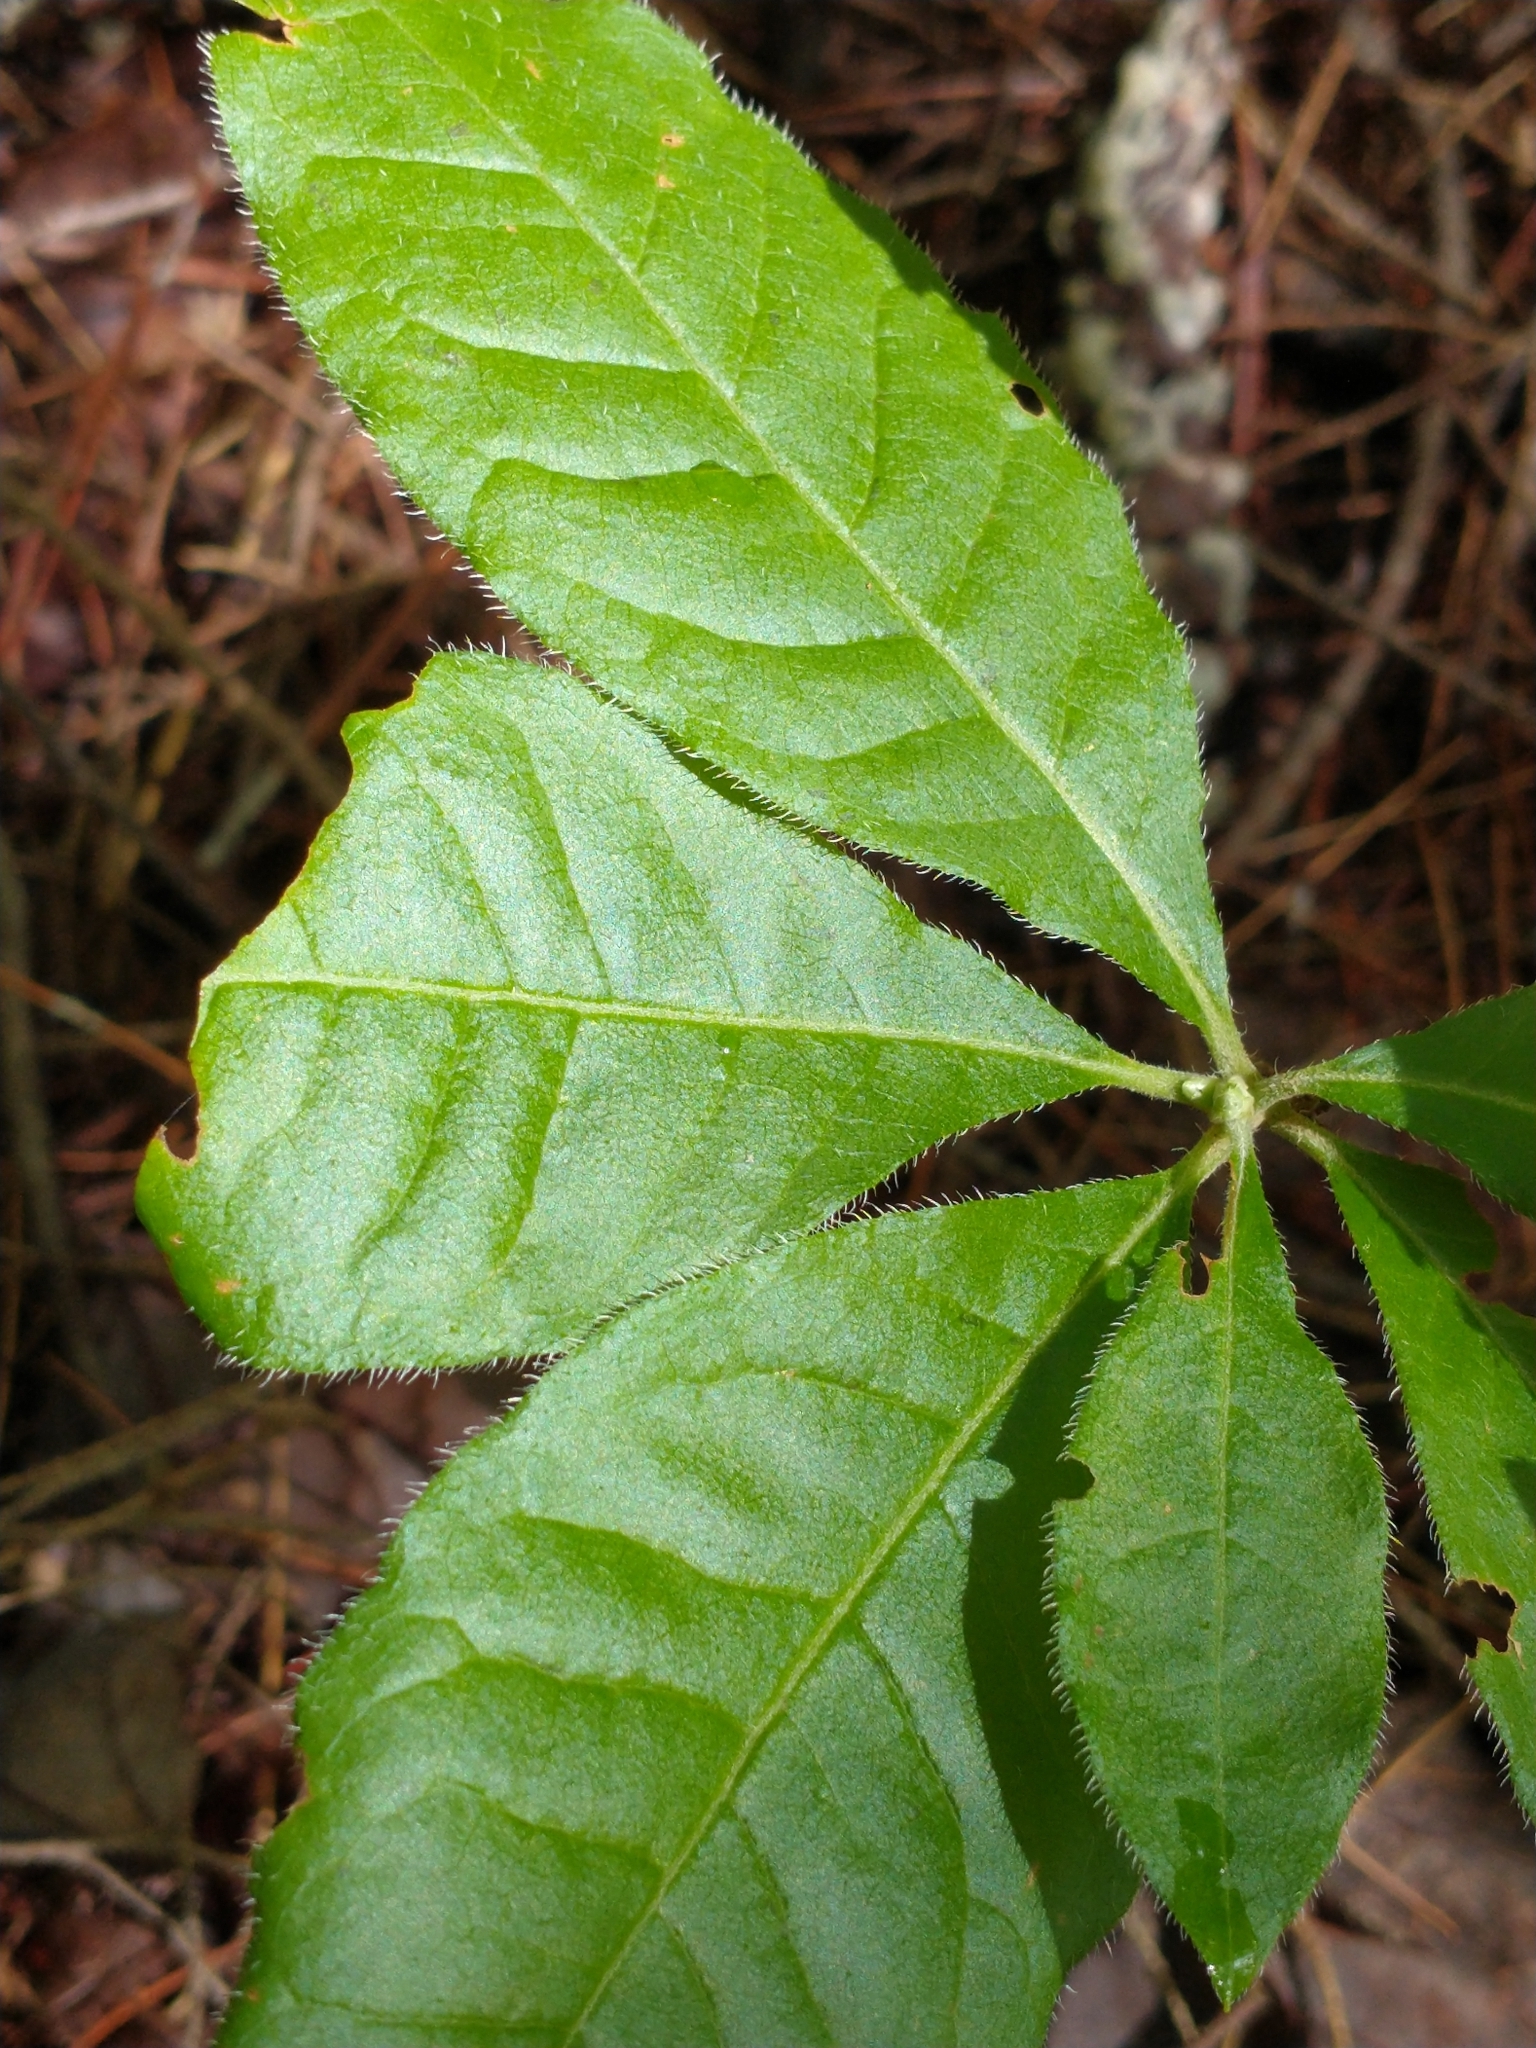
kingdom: Plantae
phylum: Tracheophyta
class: Magnoliopsida
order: Ericales
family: Ericaceae
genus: Rhododendron
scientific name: Rhododendron roseum
